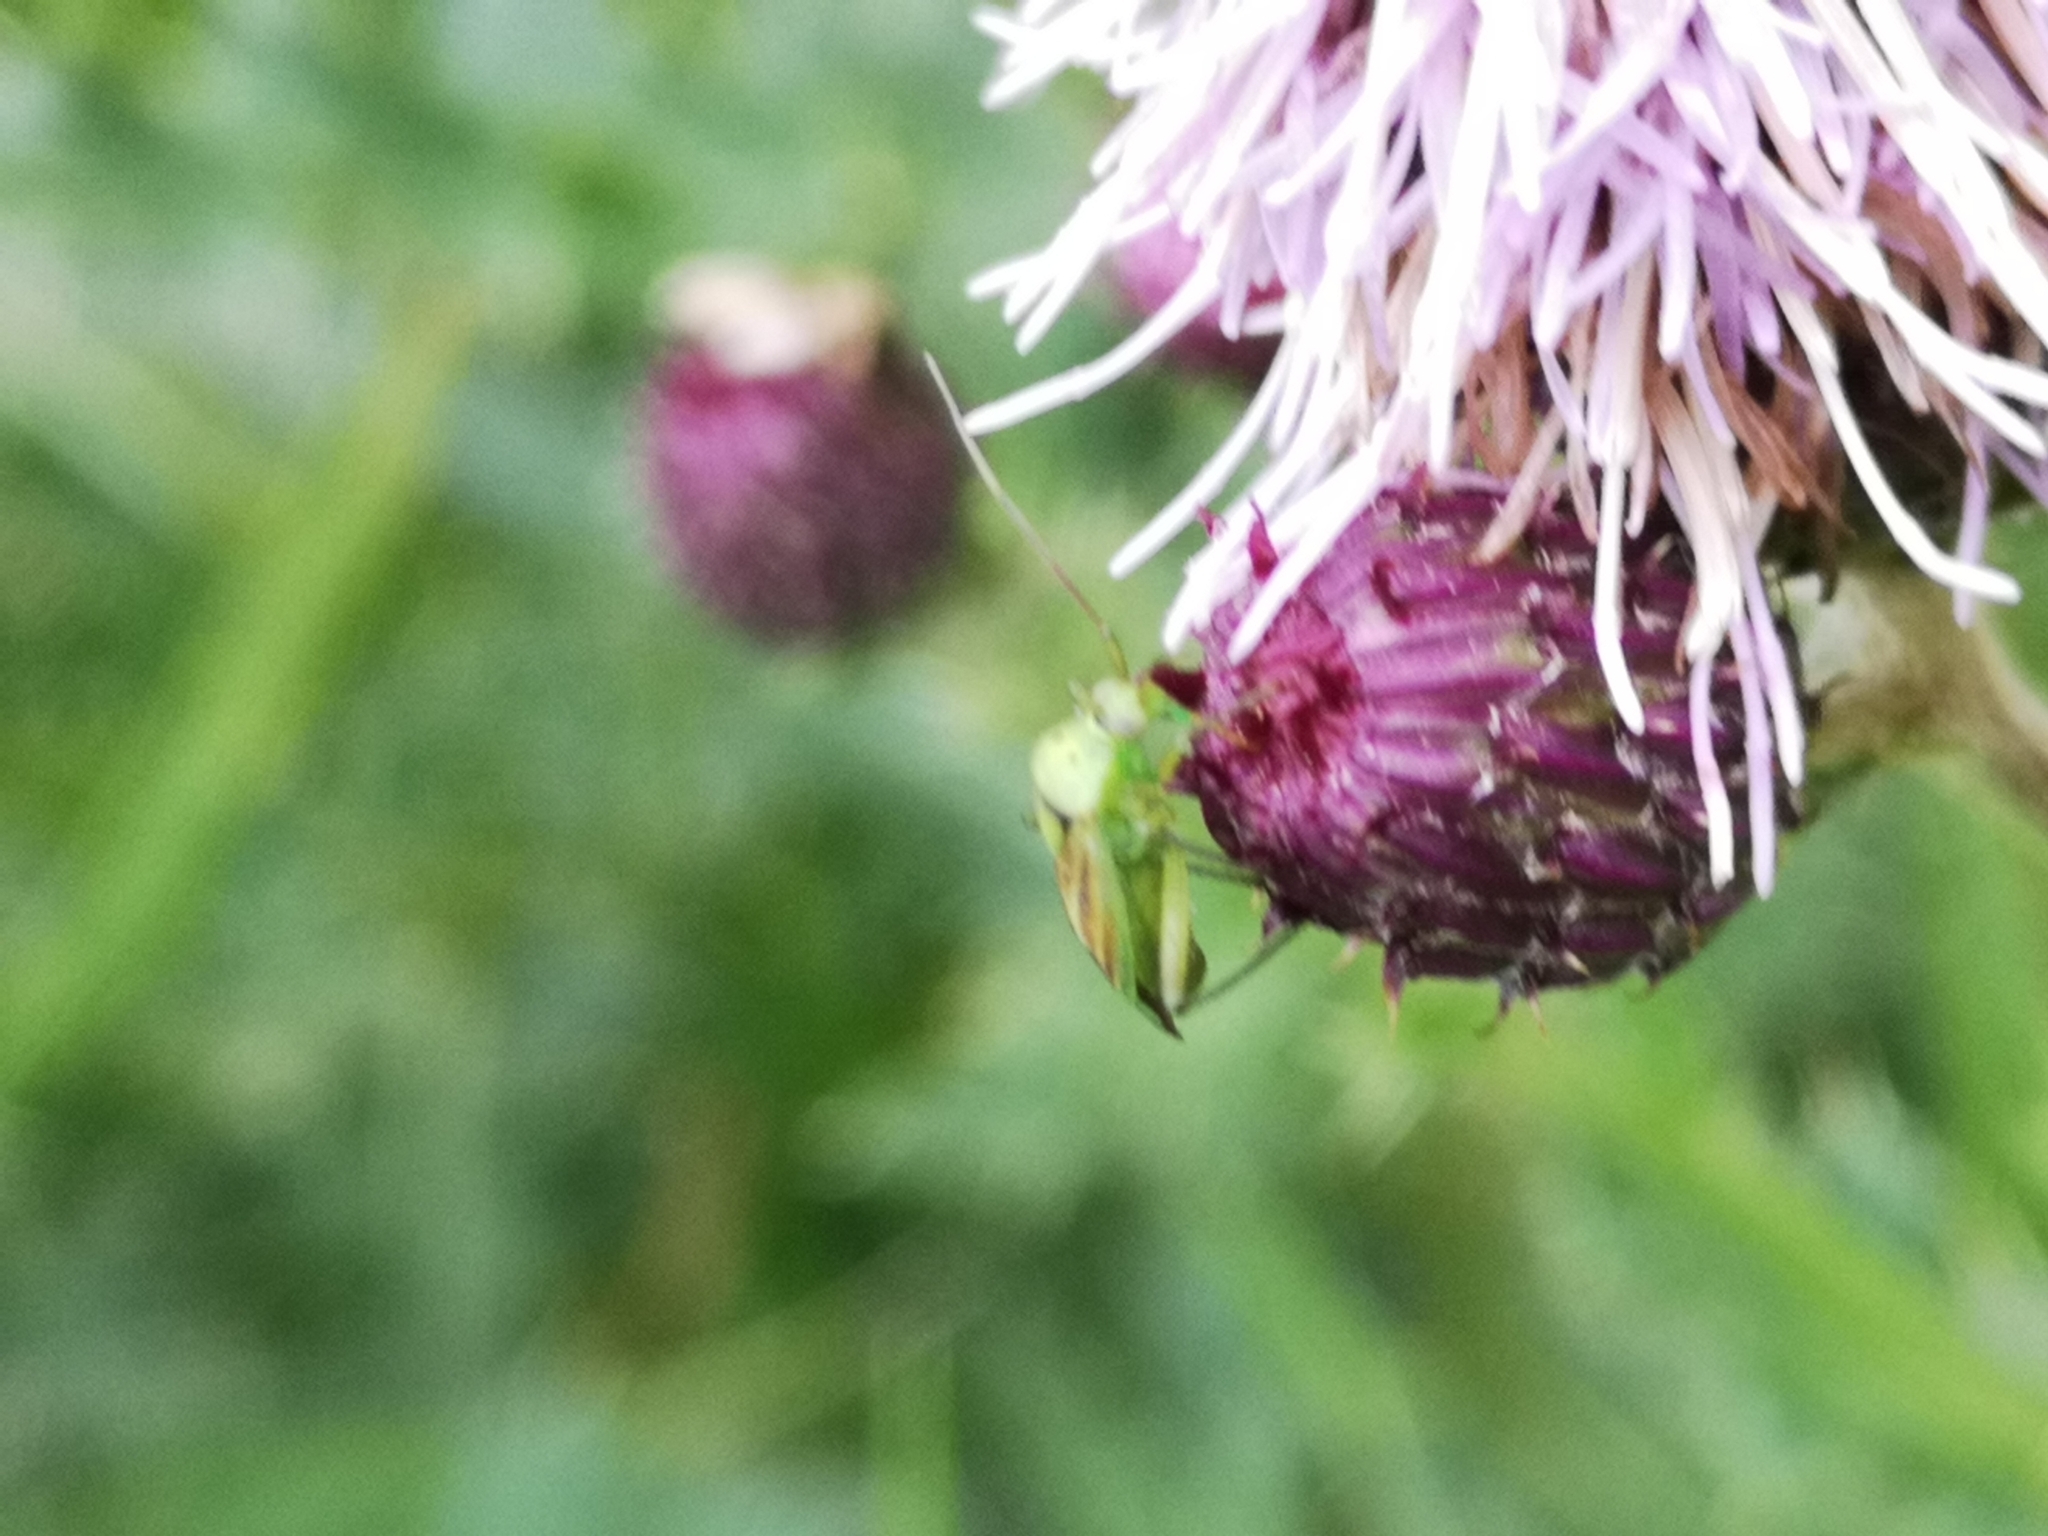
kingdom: Animalia
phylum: Arthropoda
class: Insecta
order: Hemiptera
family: Miridae
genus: Closterotomus
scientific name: Closterotomus norvegicus
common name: Plant bug
